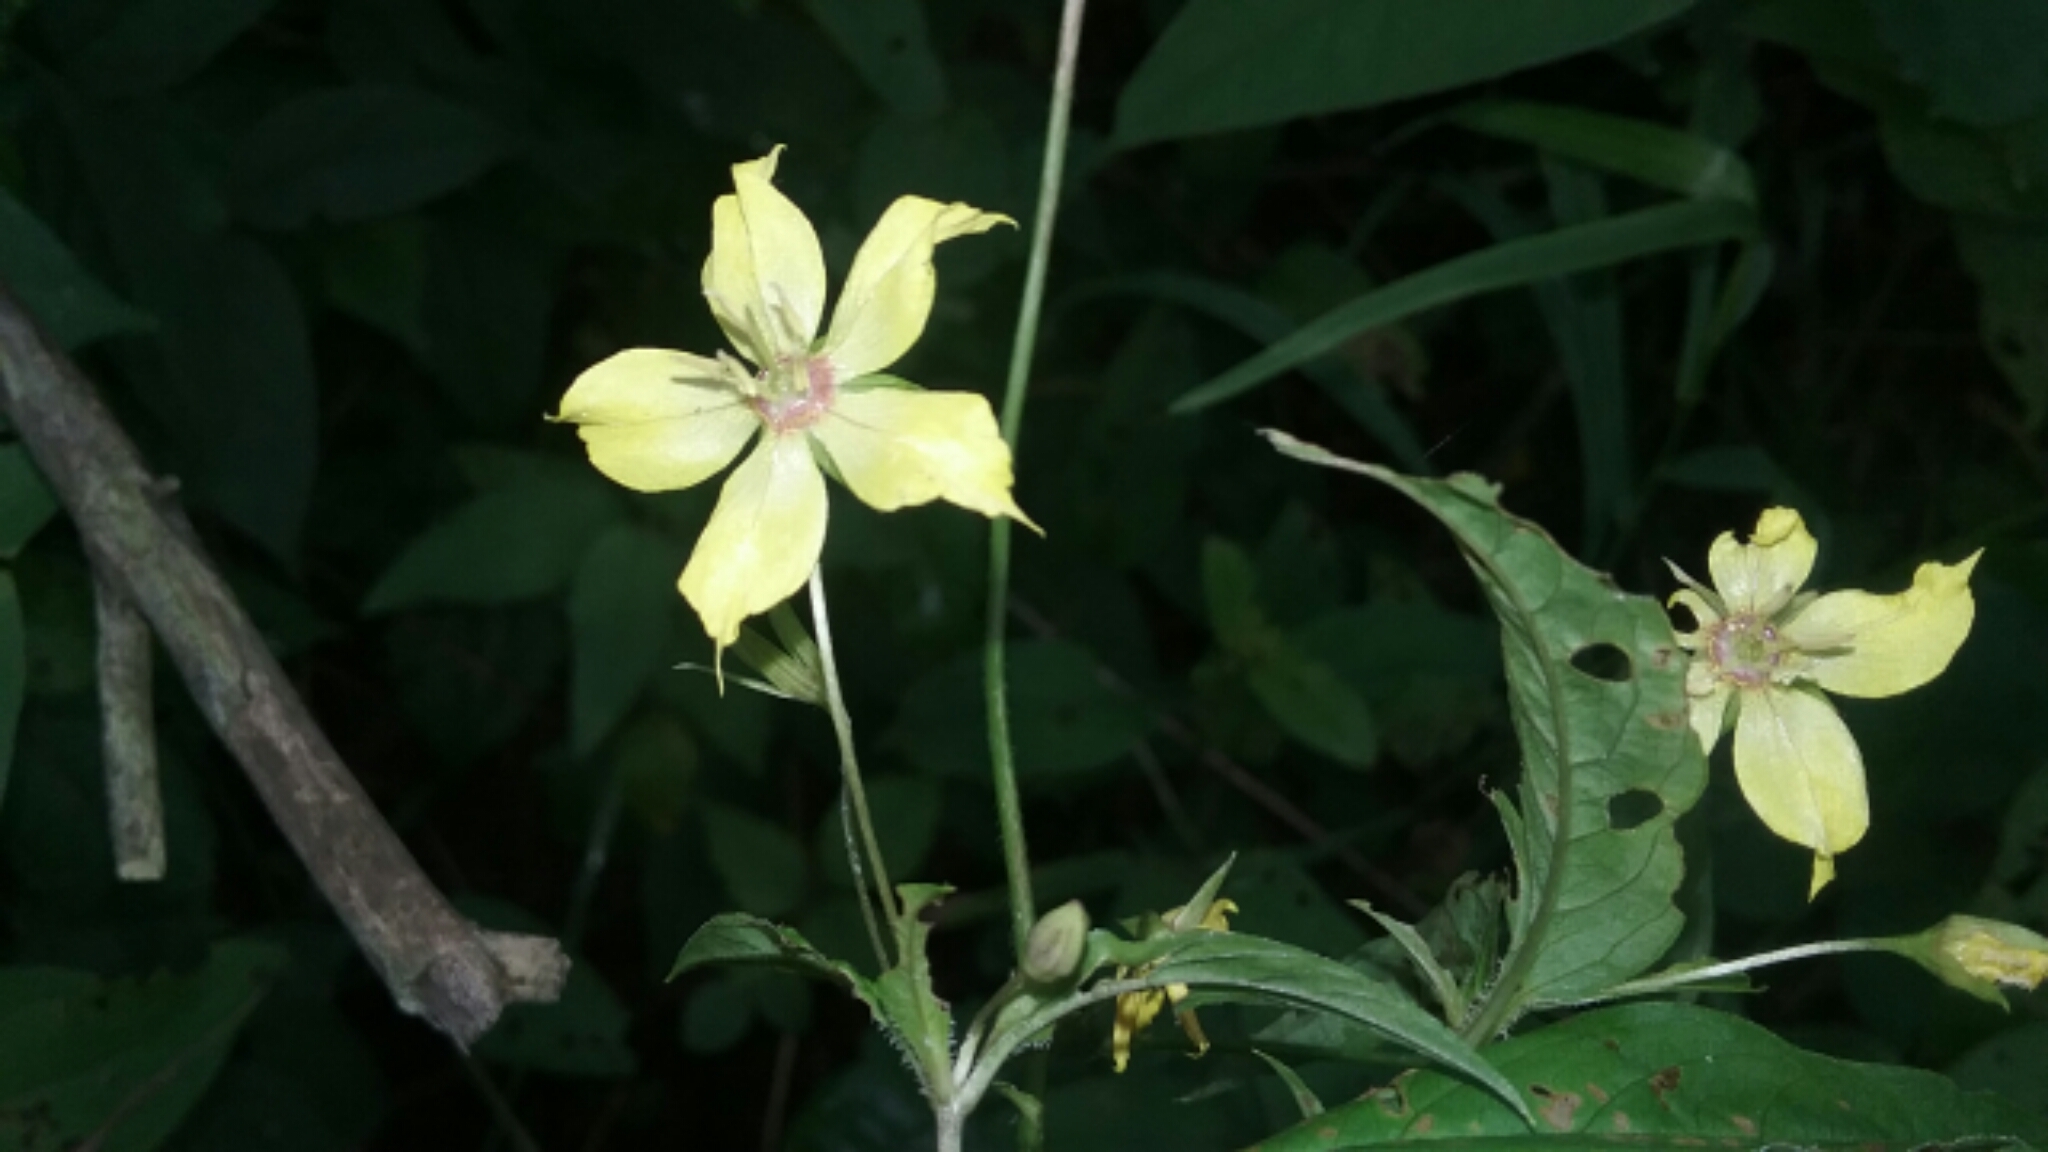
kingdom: Plantae
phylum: Tracheophyta
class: Magnoliopsida
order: Ericales
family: Primulaceae
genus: Lysimachia
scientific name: Lysimachia ciliata
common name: Fringed loosestrife
